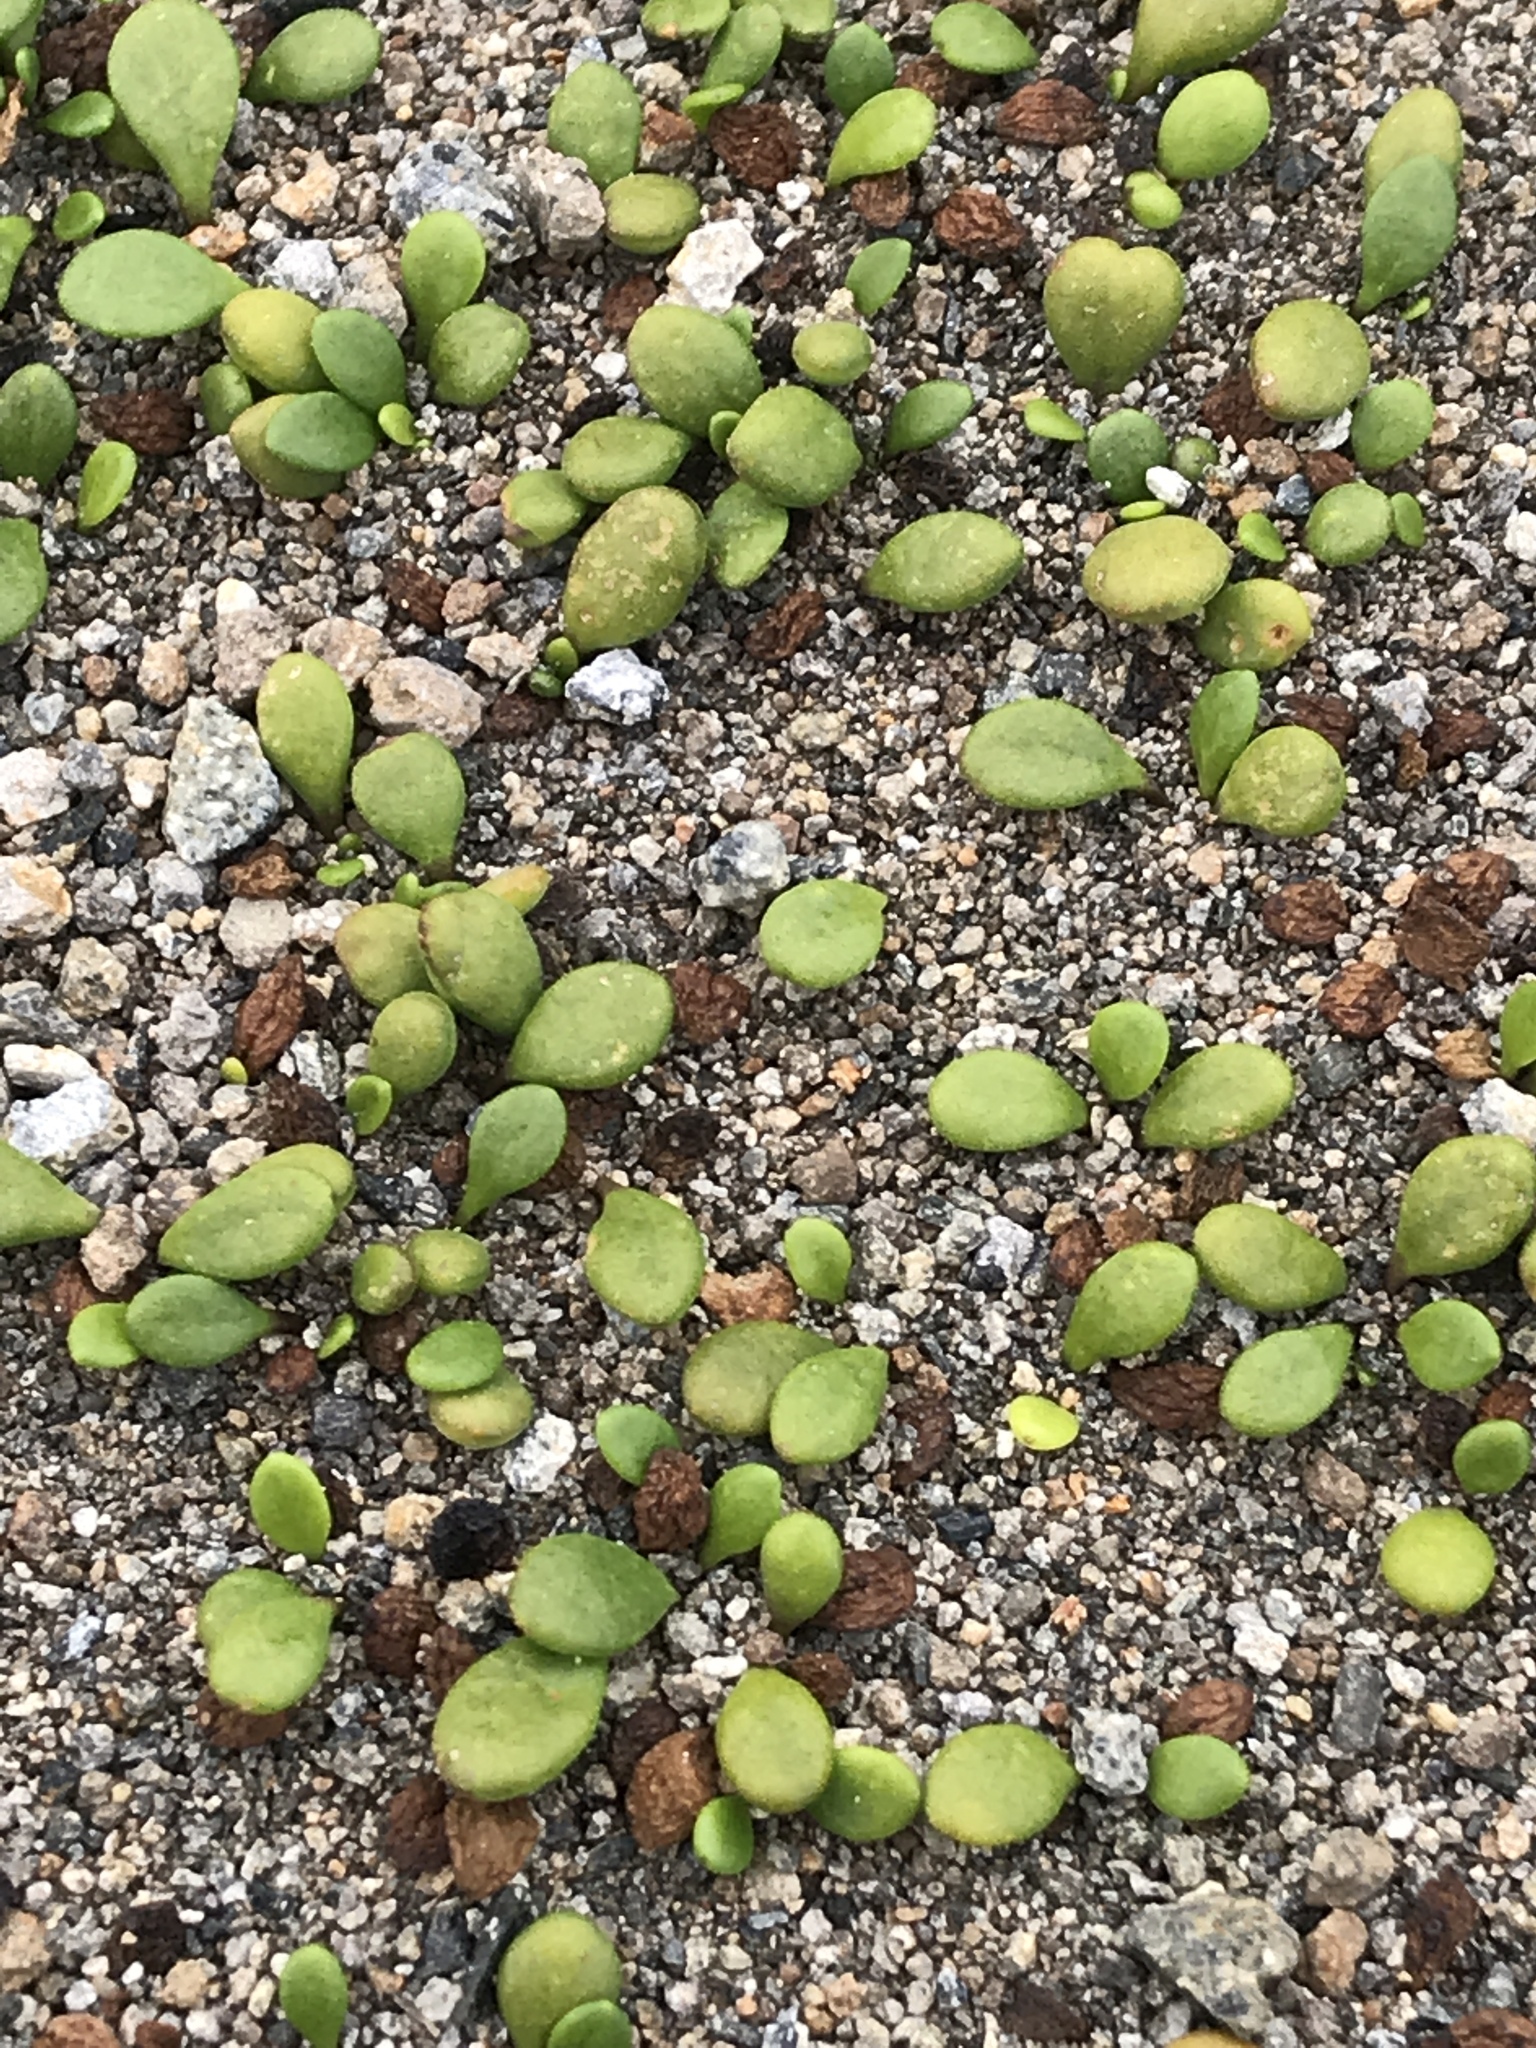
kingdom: Plantae
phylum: Tracheophyta
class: Magnoliopsida
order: Asterales
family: Goodeniaceae
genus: Goodenia
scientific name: Goodenia radicans
